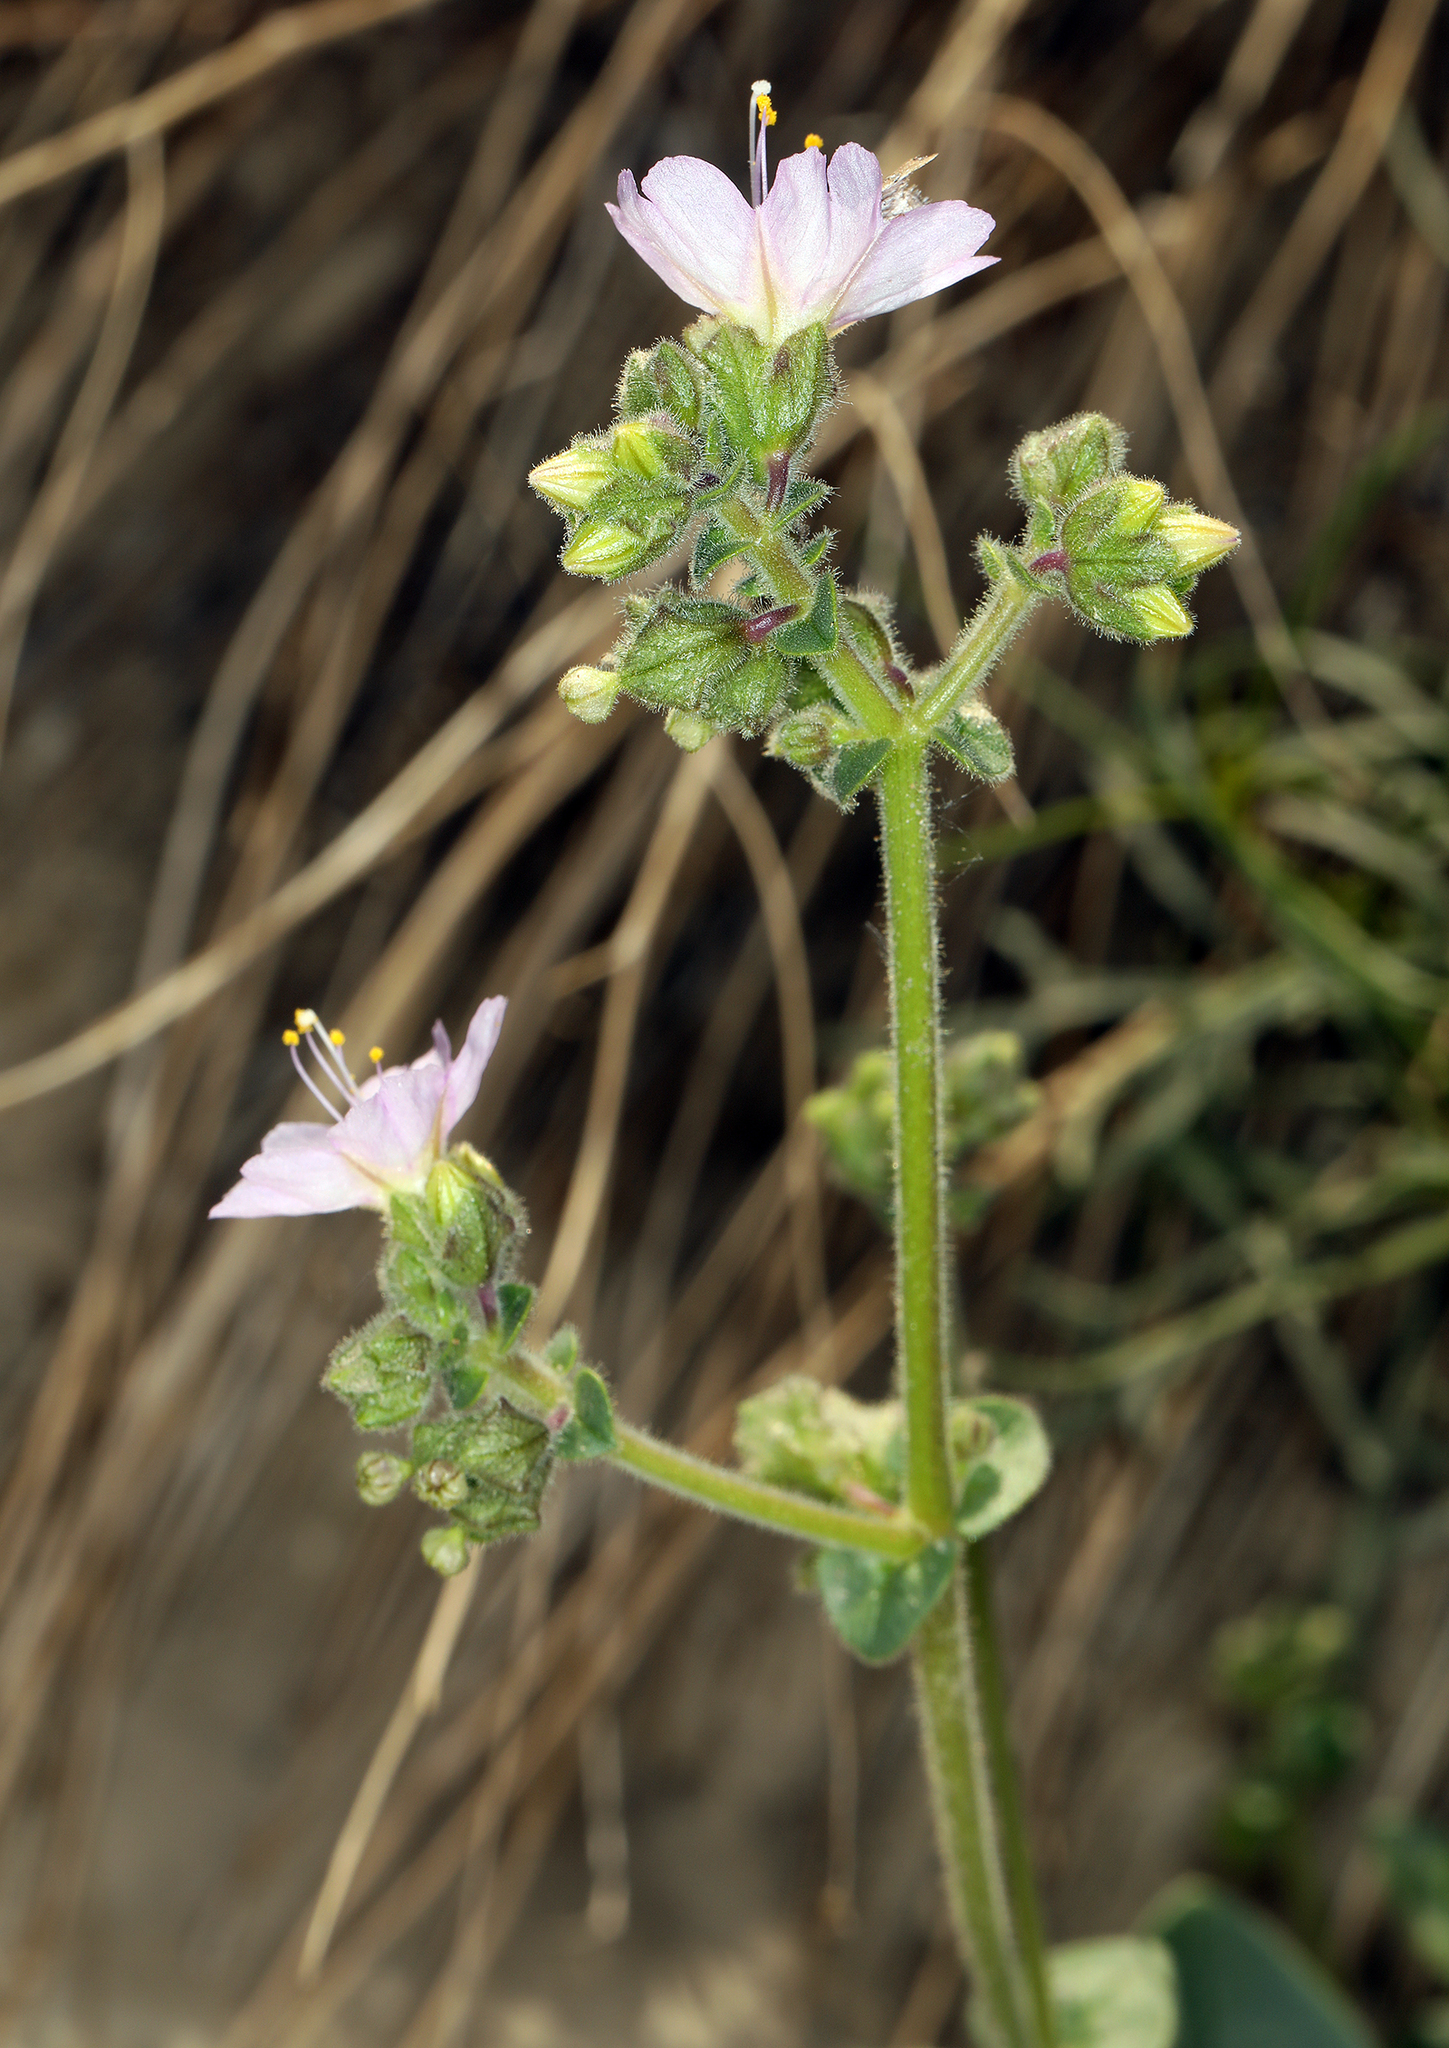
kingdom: Plantae
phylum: Tracheophyta
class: Magnoliopsida
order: Caryophyllales
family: Nyctaginaceae
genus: Mirabilis
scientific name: Mirabilis laevis
